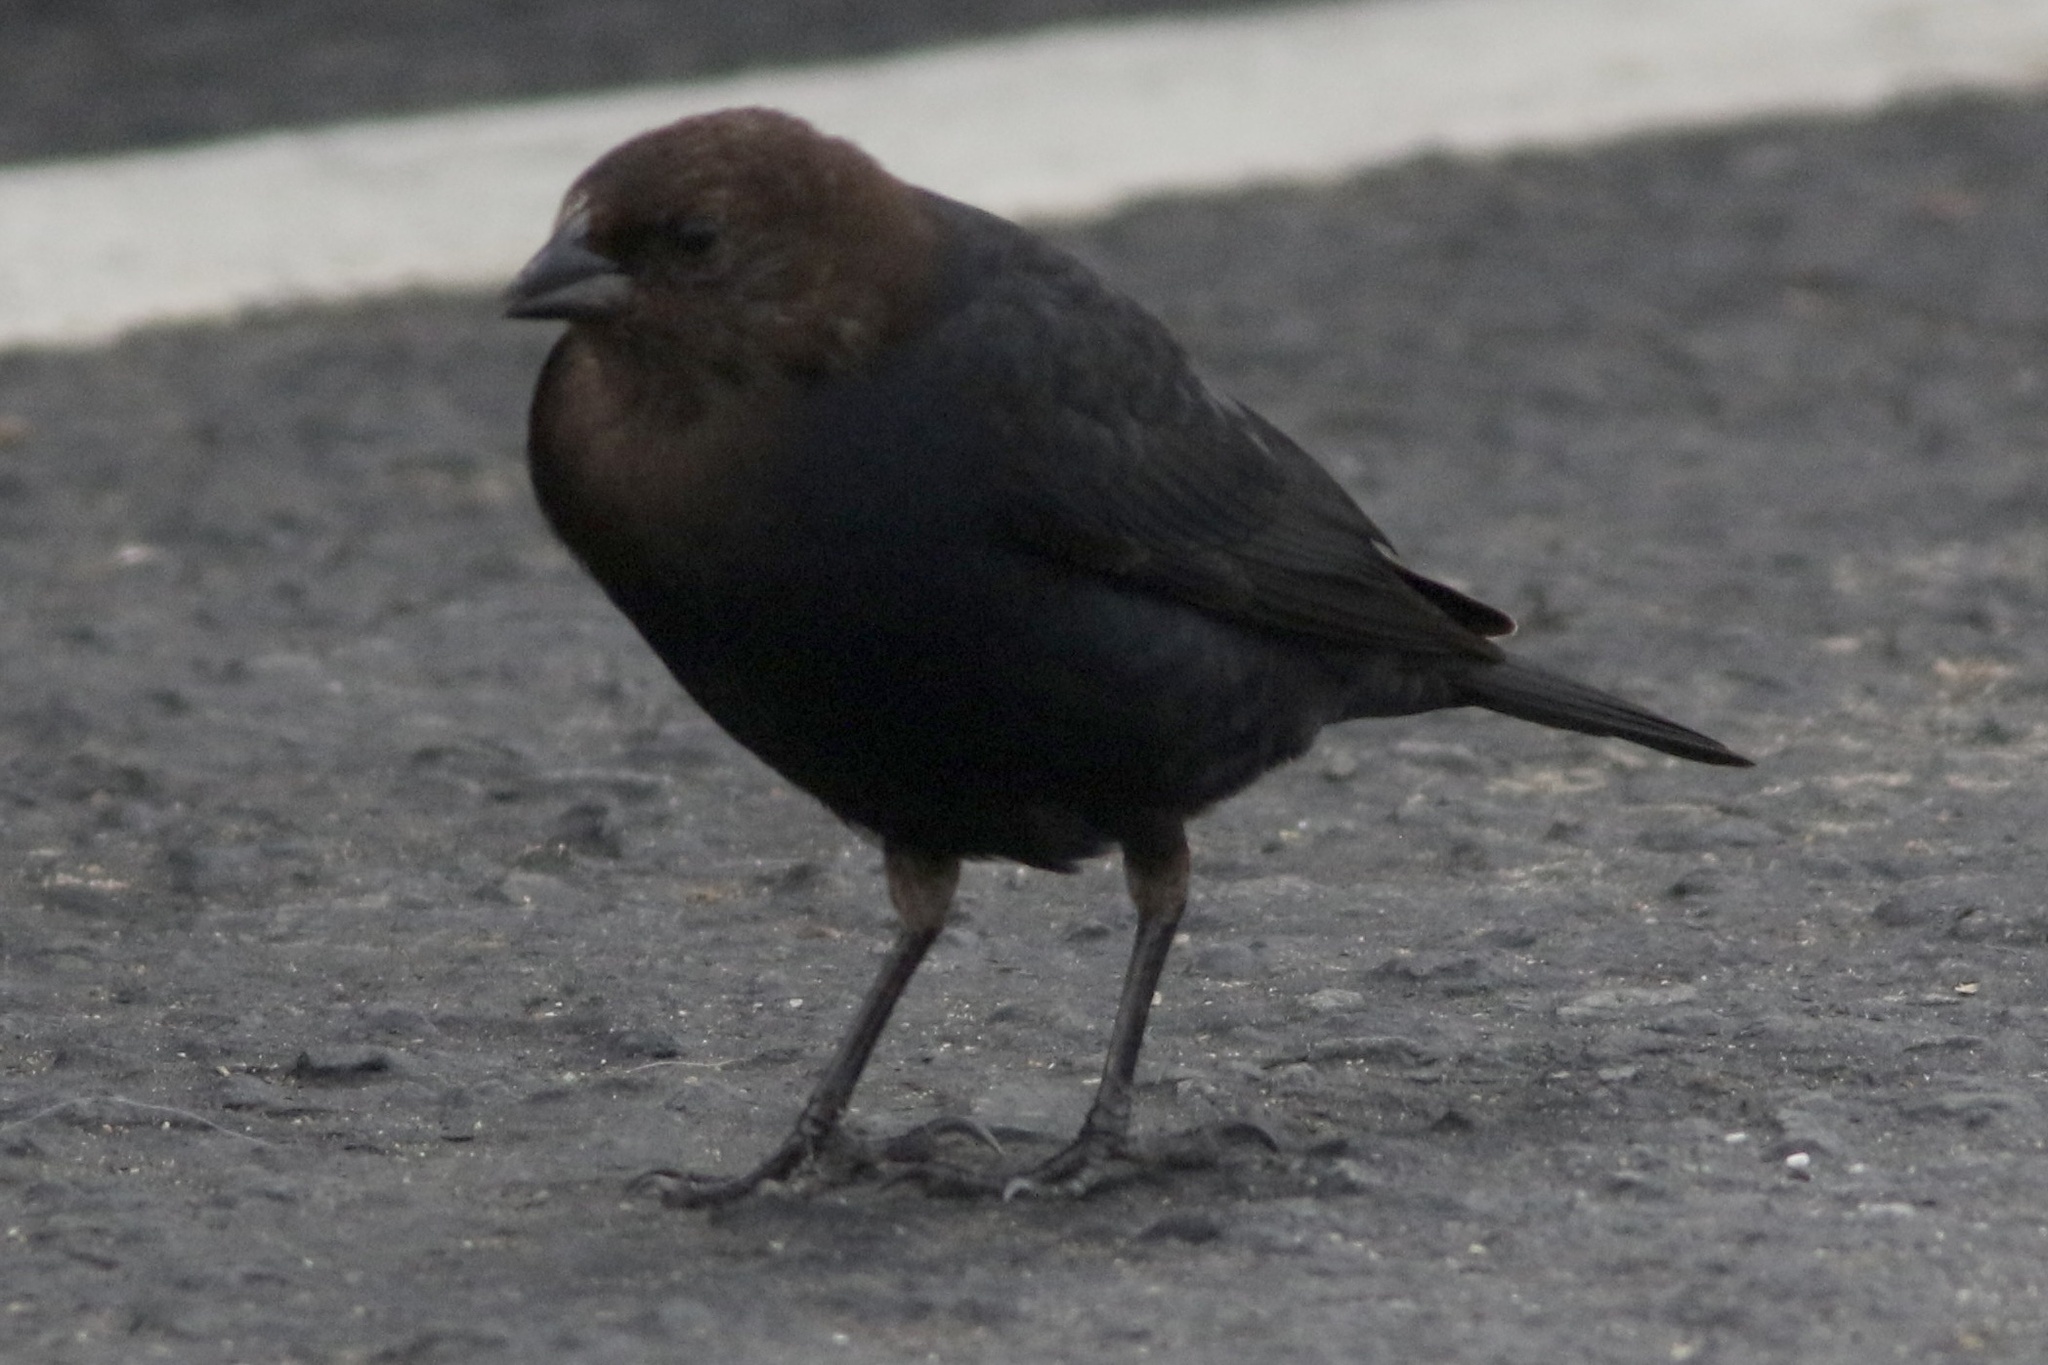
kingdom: Animalia
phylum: Chordata
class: Aves
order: Passeriformes
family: Icteridae
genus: Molothrus
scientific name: Molothrus ater
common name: Brown-headed cowbird
